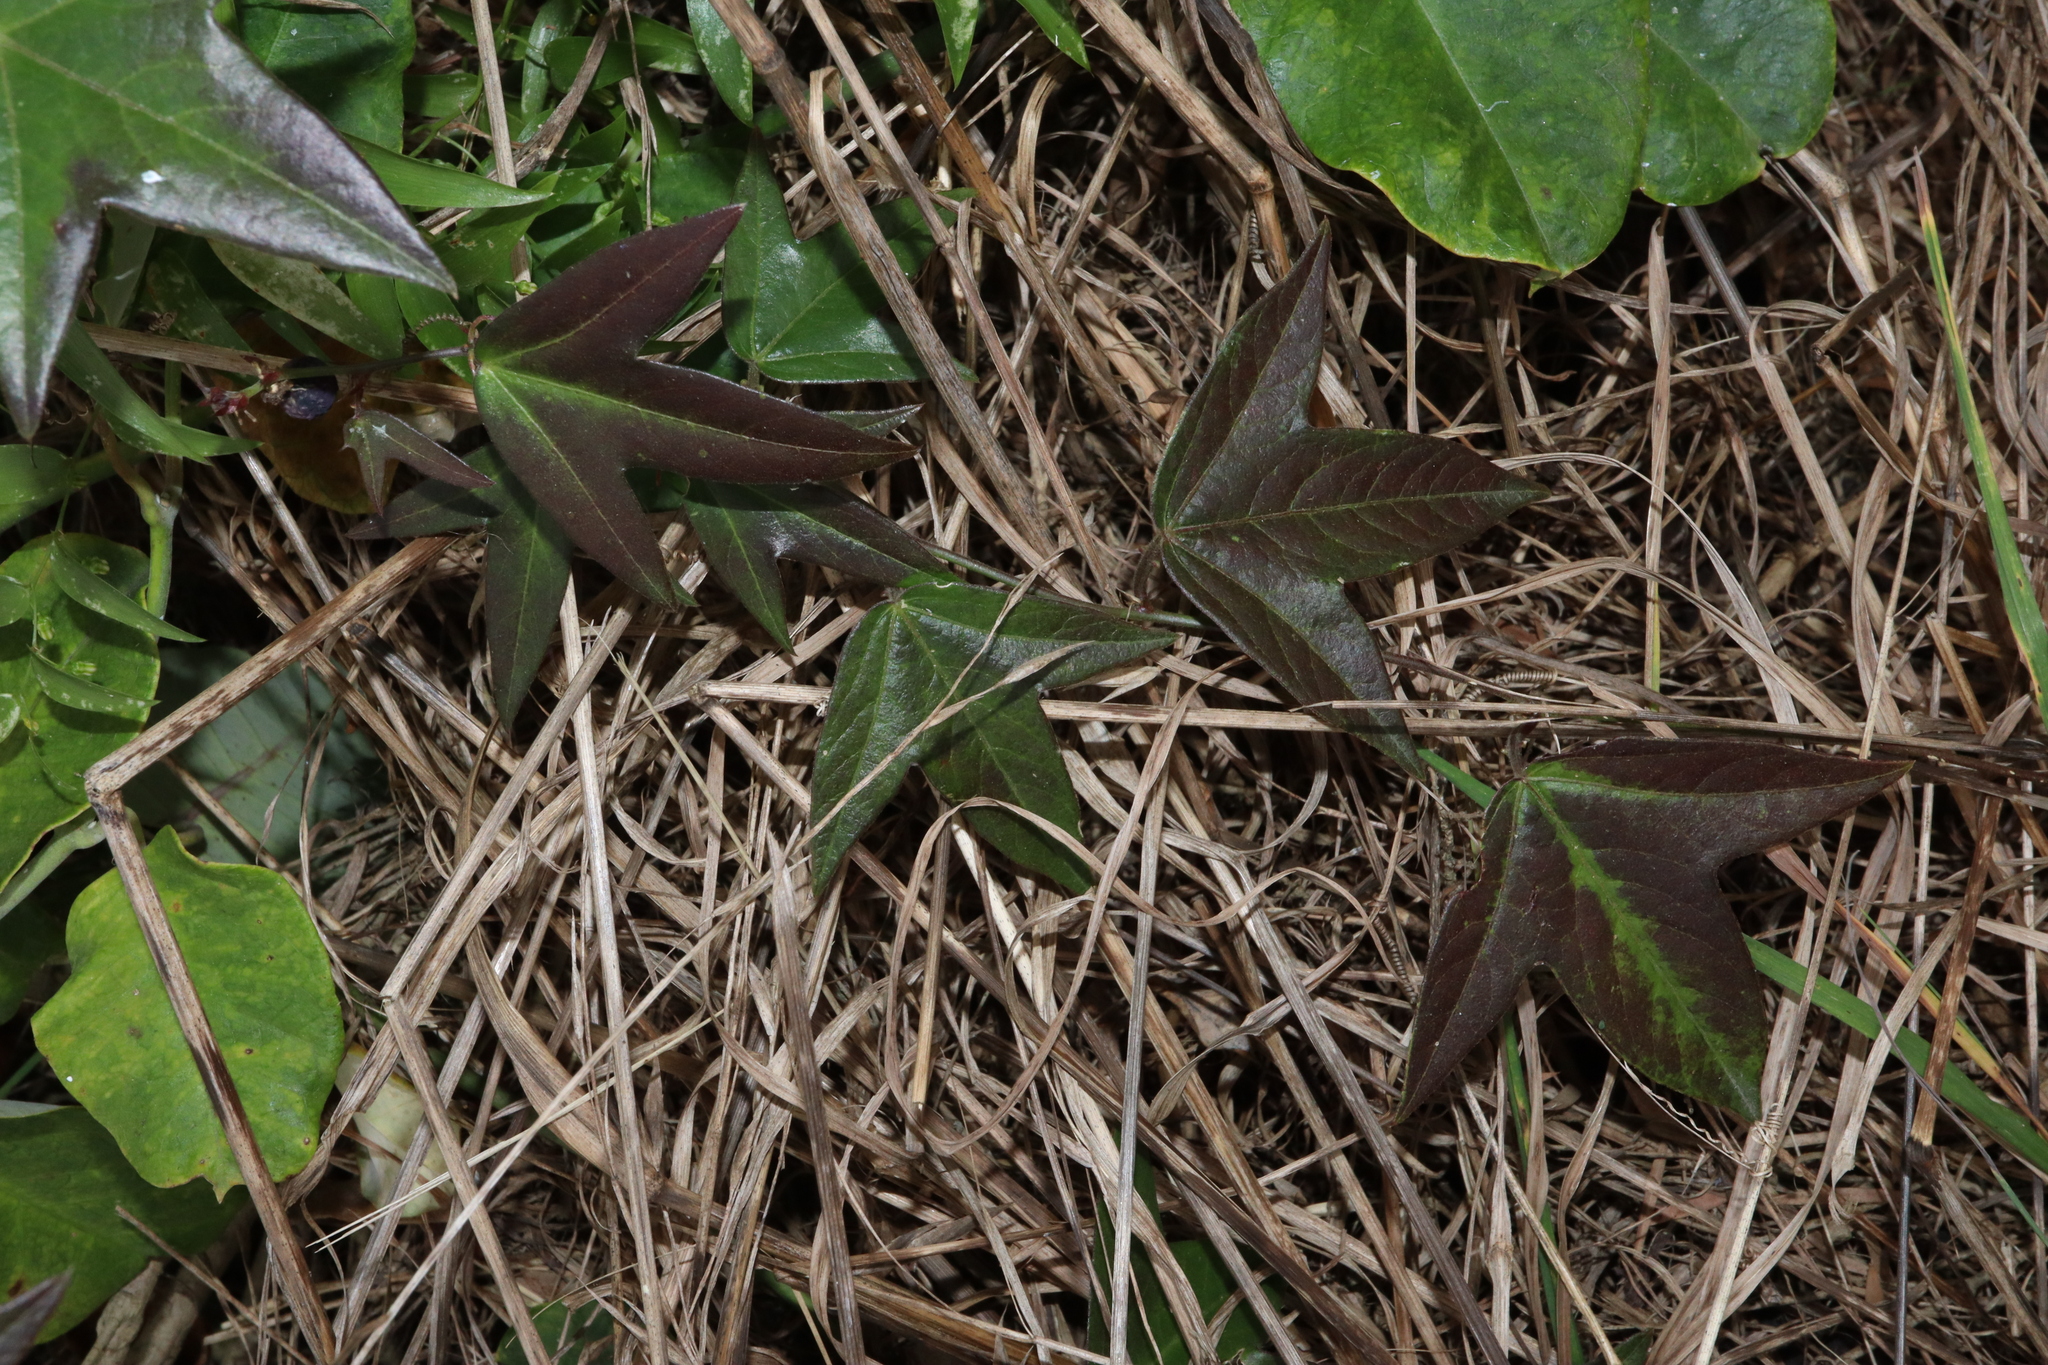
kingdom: Plantae
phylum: Tracheophyta
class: Magnoliopsida
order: Malpighiales
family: Passifloraceae
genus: Passiflora
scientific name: Passiflora suberosa
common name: Wild passionfruit
